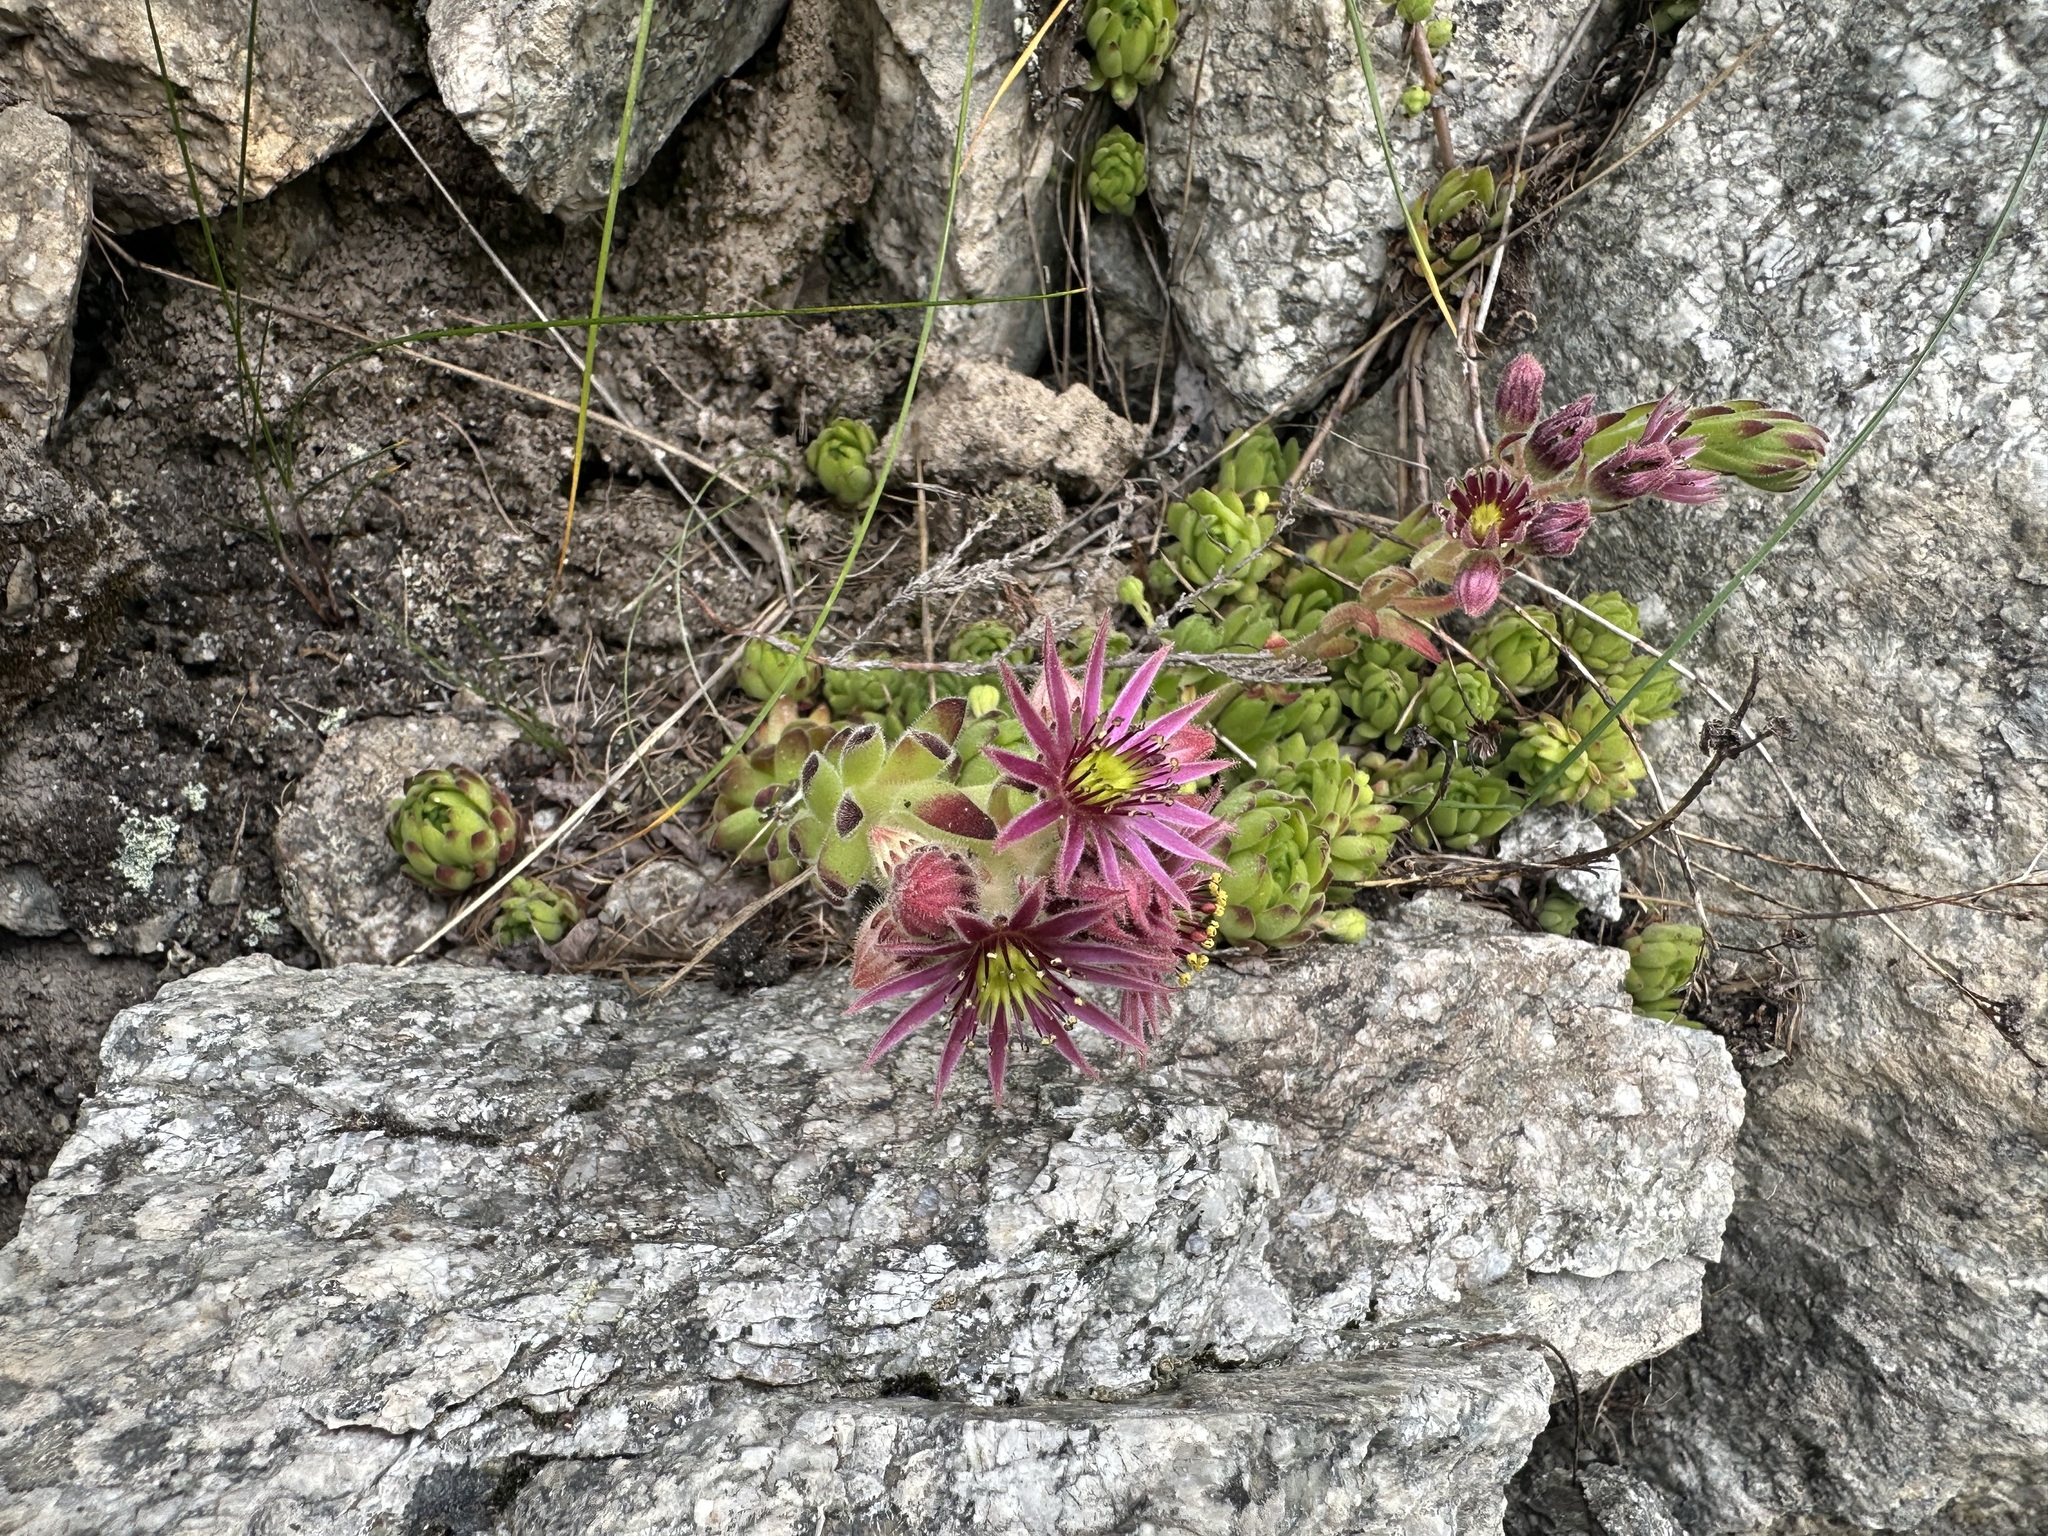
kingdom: Plantae
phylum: Tracheophyta
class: Magnoliopsida
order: Saxifragales
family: Crassulaceae
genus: Sempervivum
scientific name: Sempervivum montanum
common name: Mountain house-leek
